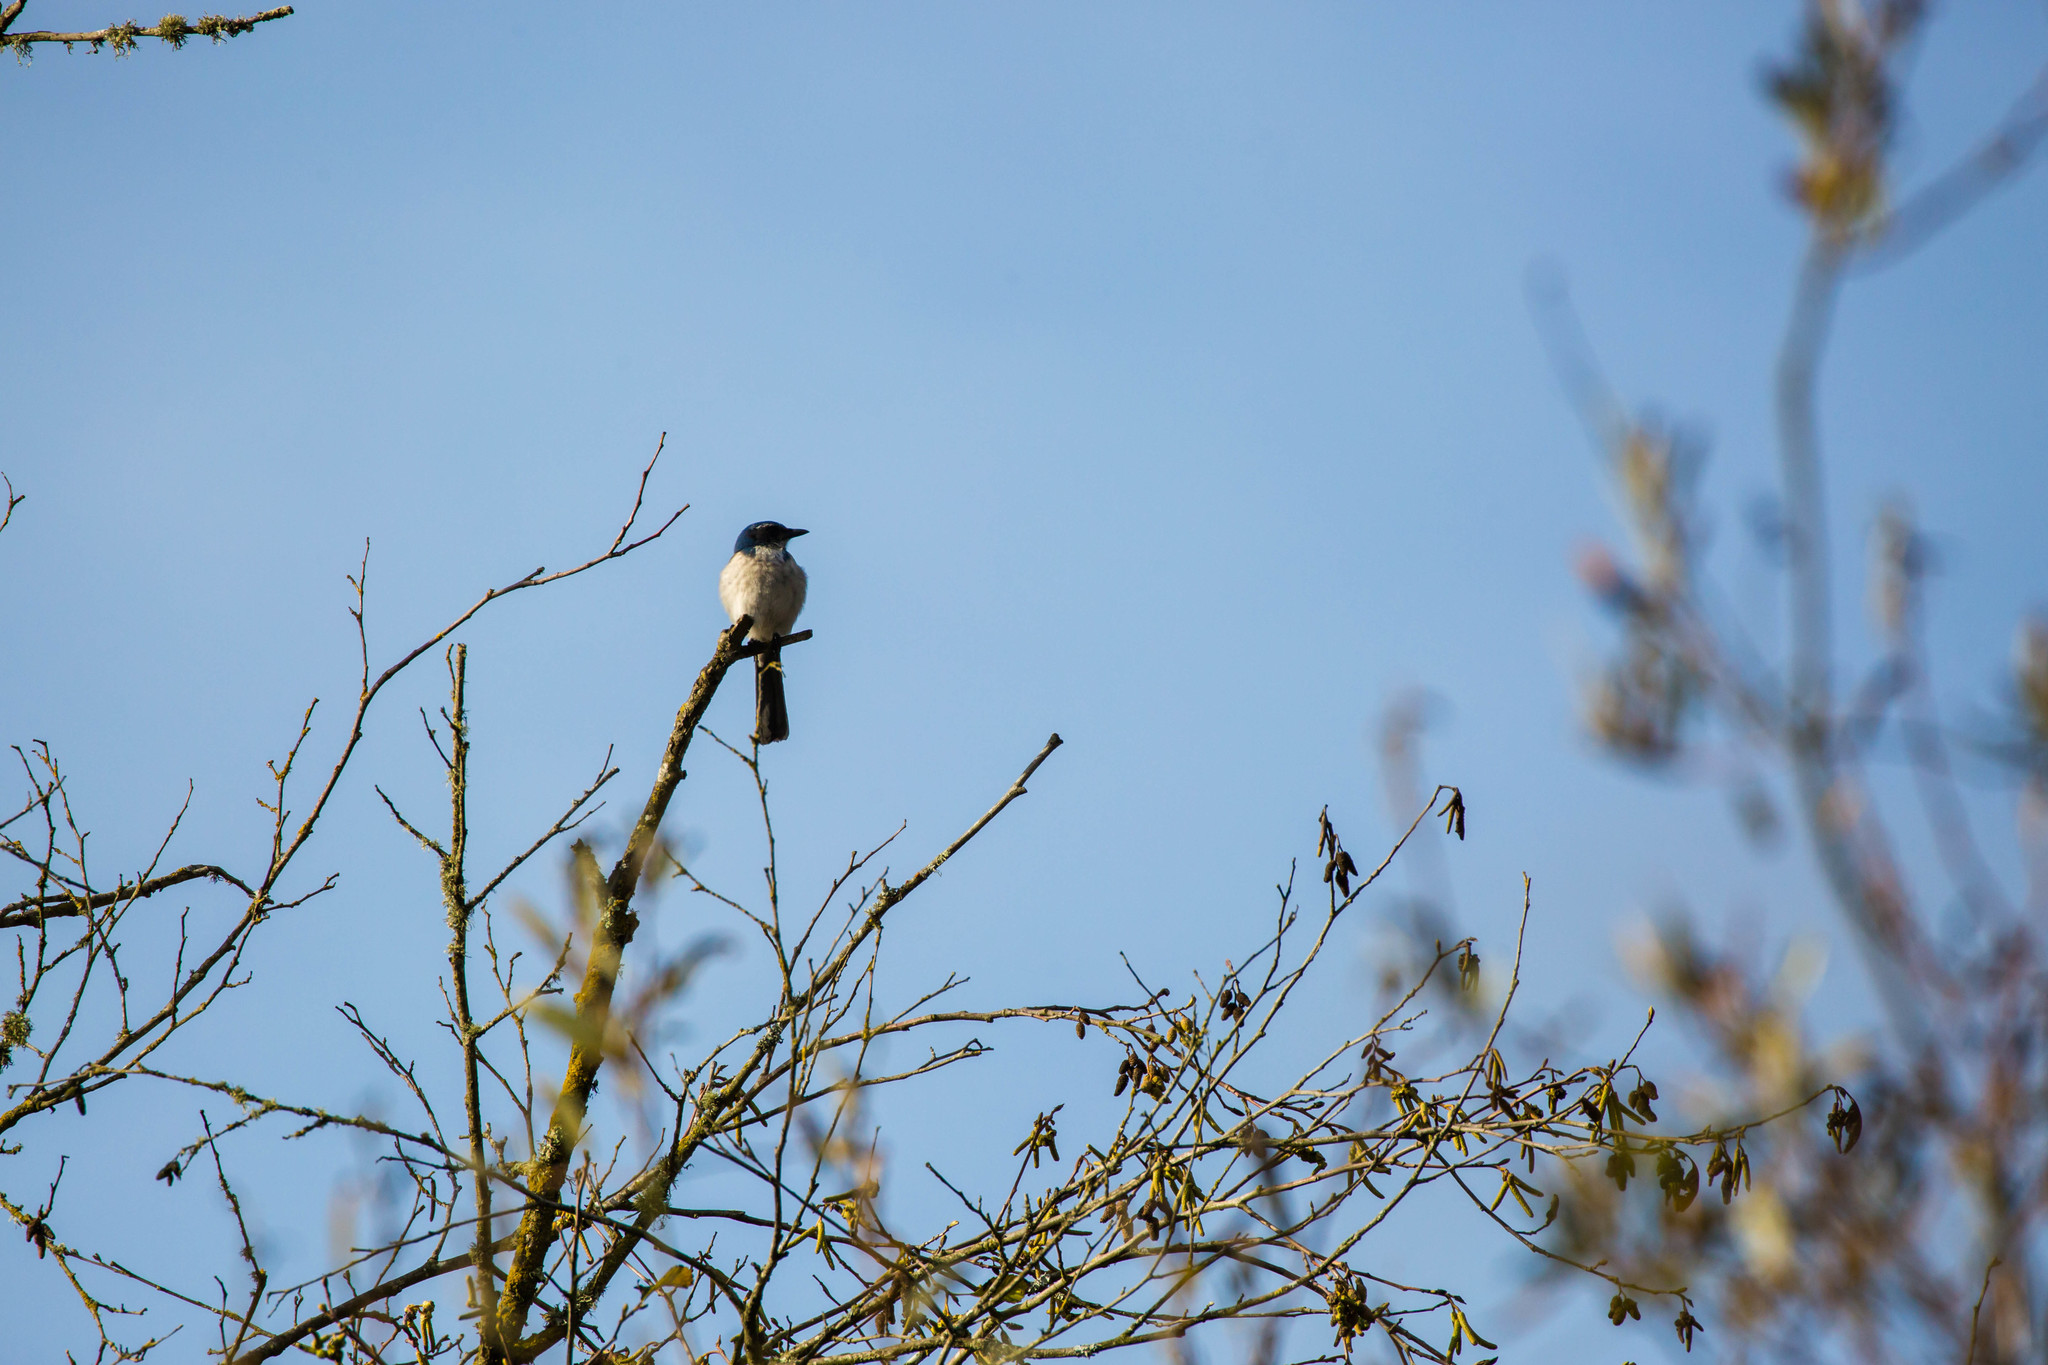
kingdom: Animalia
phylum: Chordata
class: Aves
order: Passeriformes
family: Corvidae
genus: Aphelocoma
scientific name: Aphelocoma californica
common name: California scrub-jay
